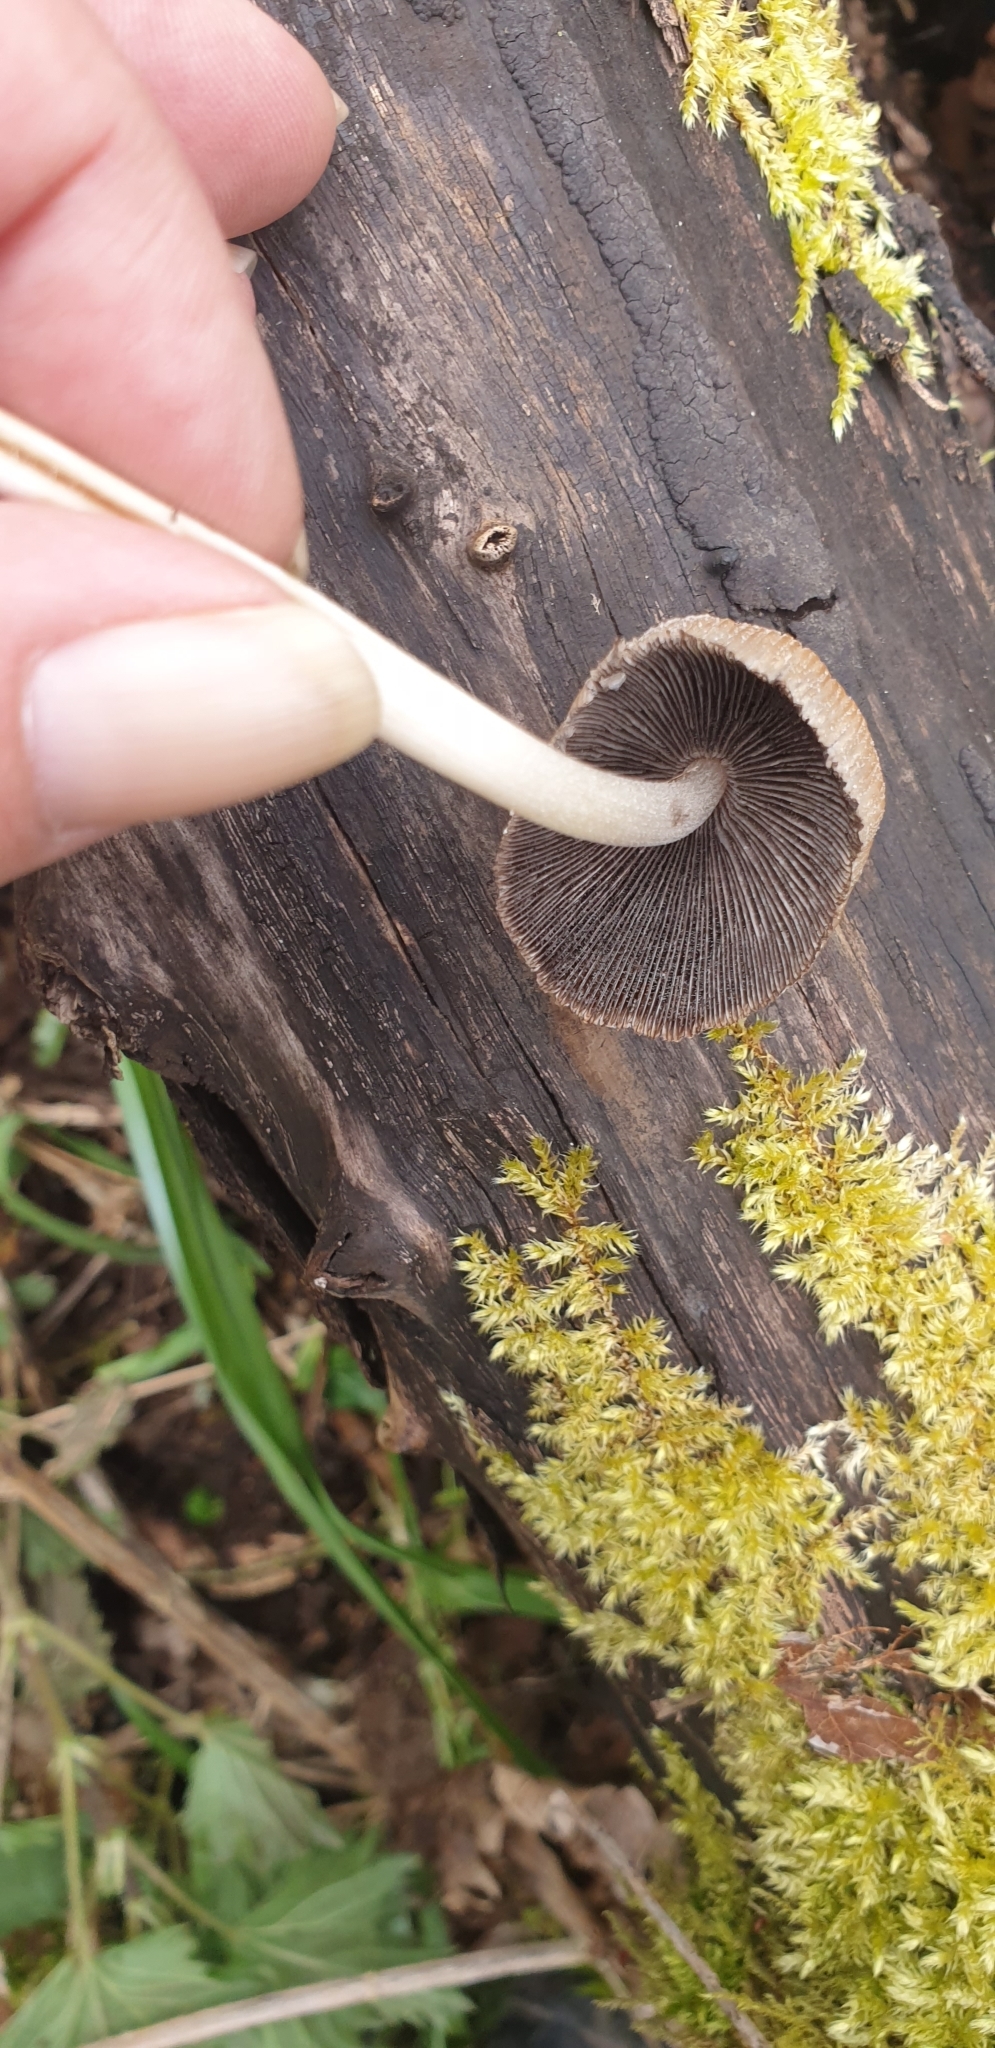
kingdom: Fungi
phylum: Basidiomycota
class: Agaricomycetes
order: Agaricales
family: Psathyrellaceae
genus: Coprinellus
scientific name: Coprinellus micaceus
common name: Glistening ink-cap
